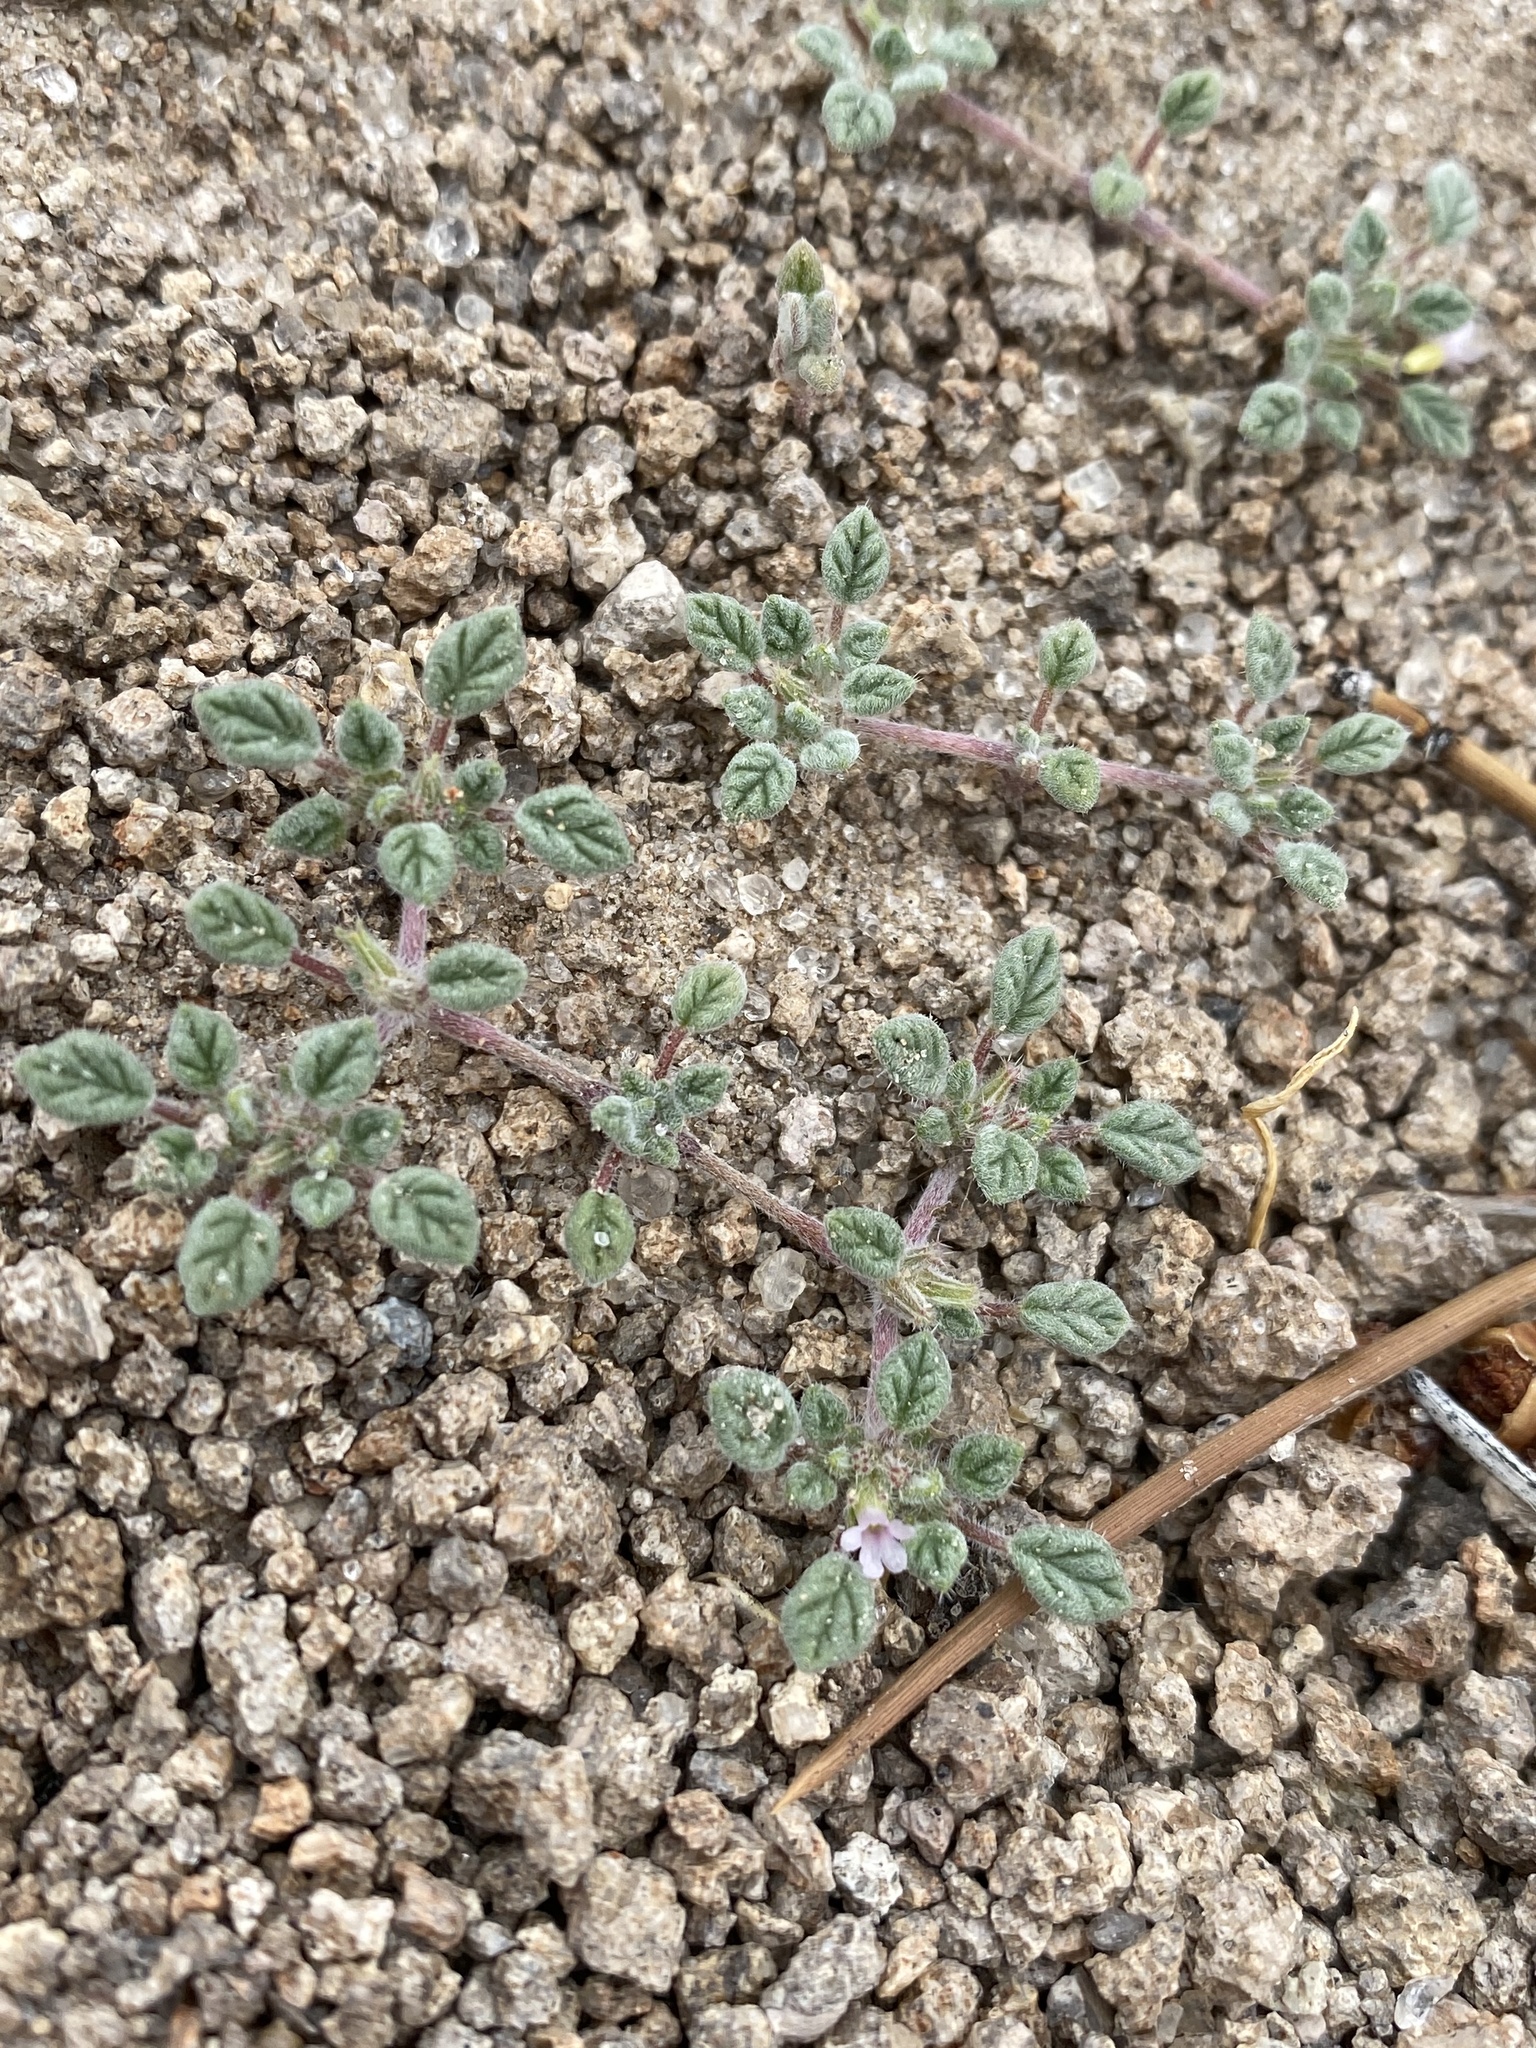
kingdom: Plantae
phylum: Tracheophyta
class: Magnoliopsida
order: Boraginales
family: Ehretiaceae
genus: Tiquilia
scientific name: Tiquilia nuttallii
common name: Rosette tiquilia
